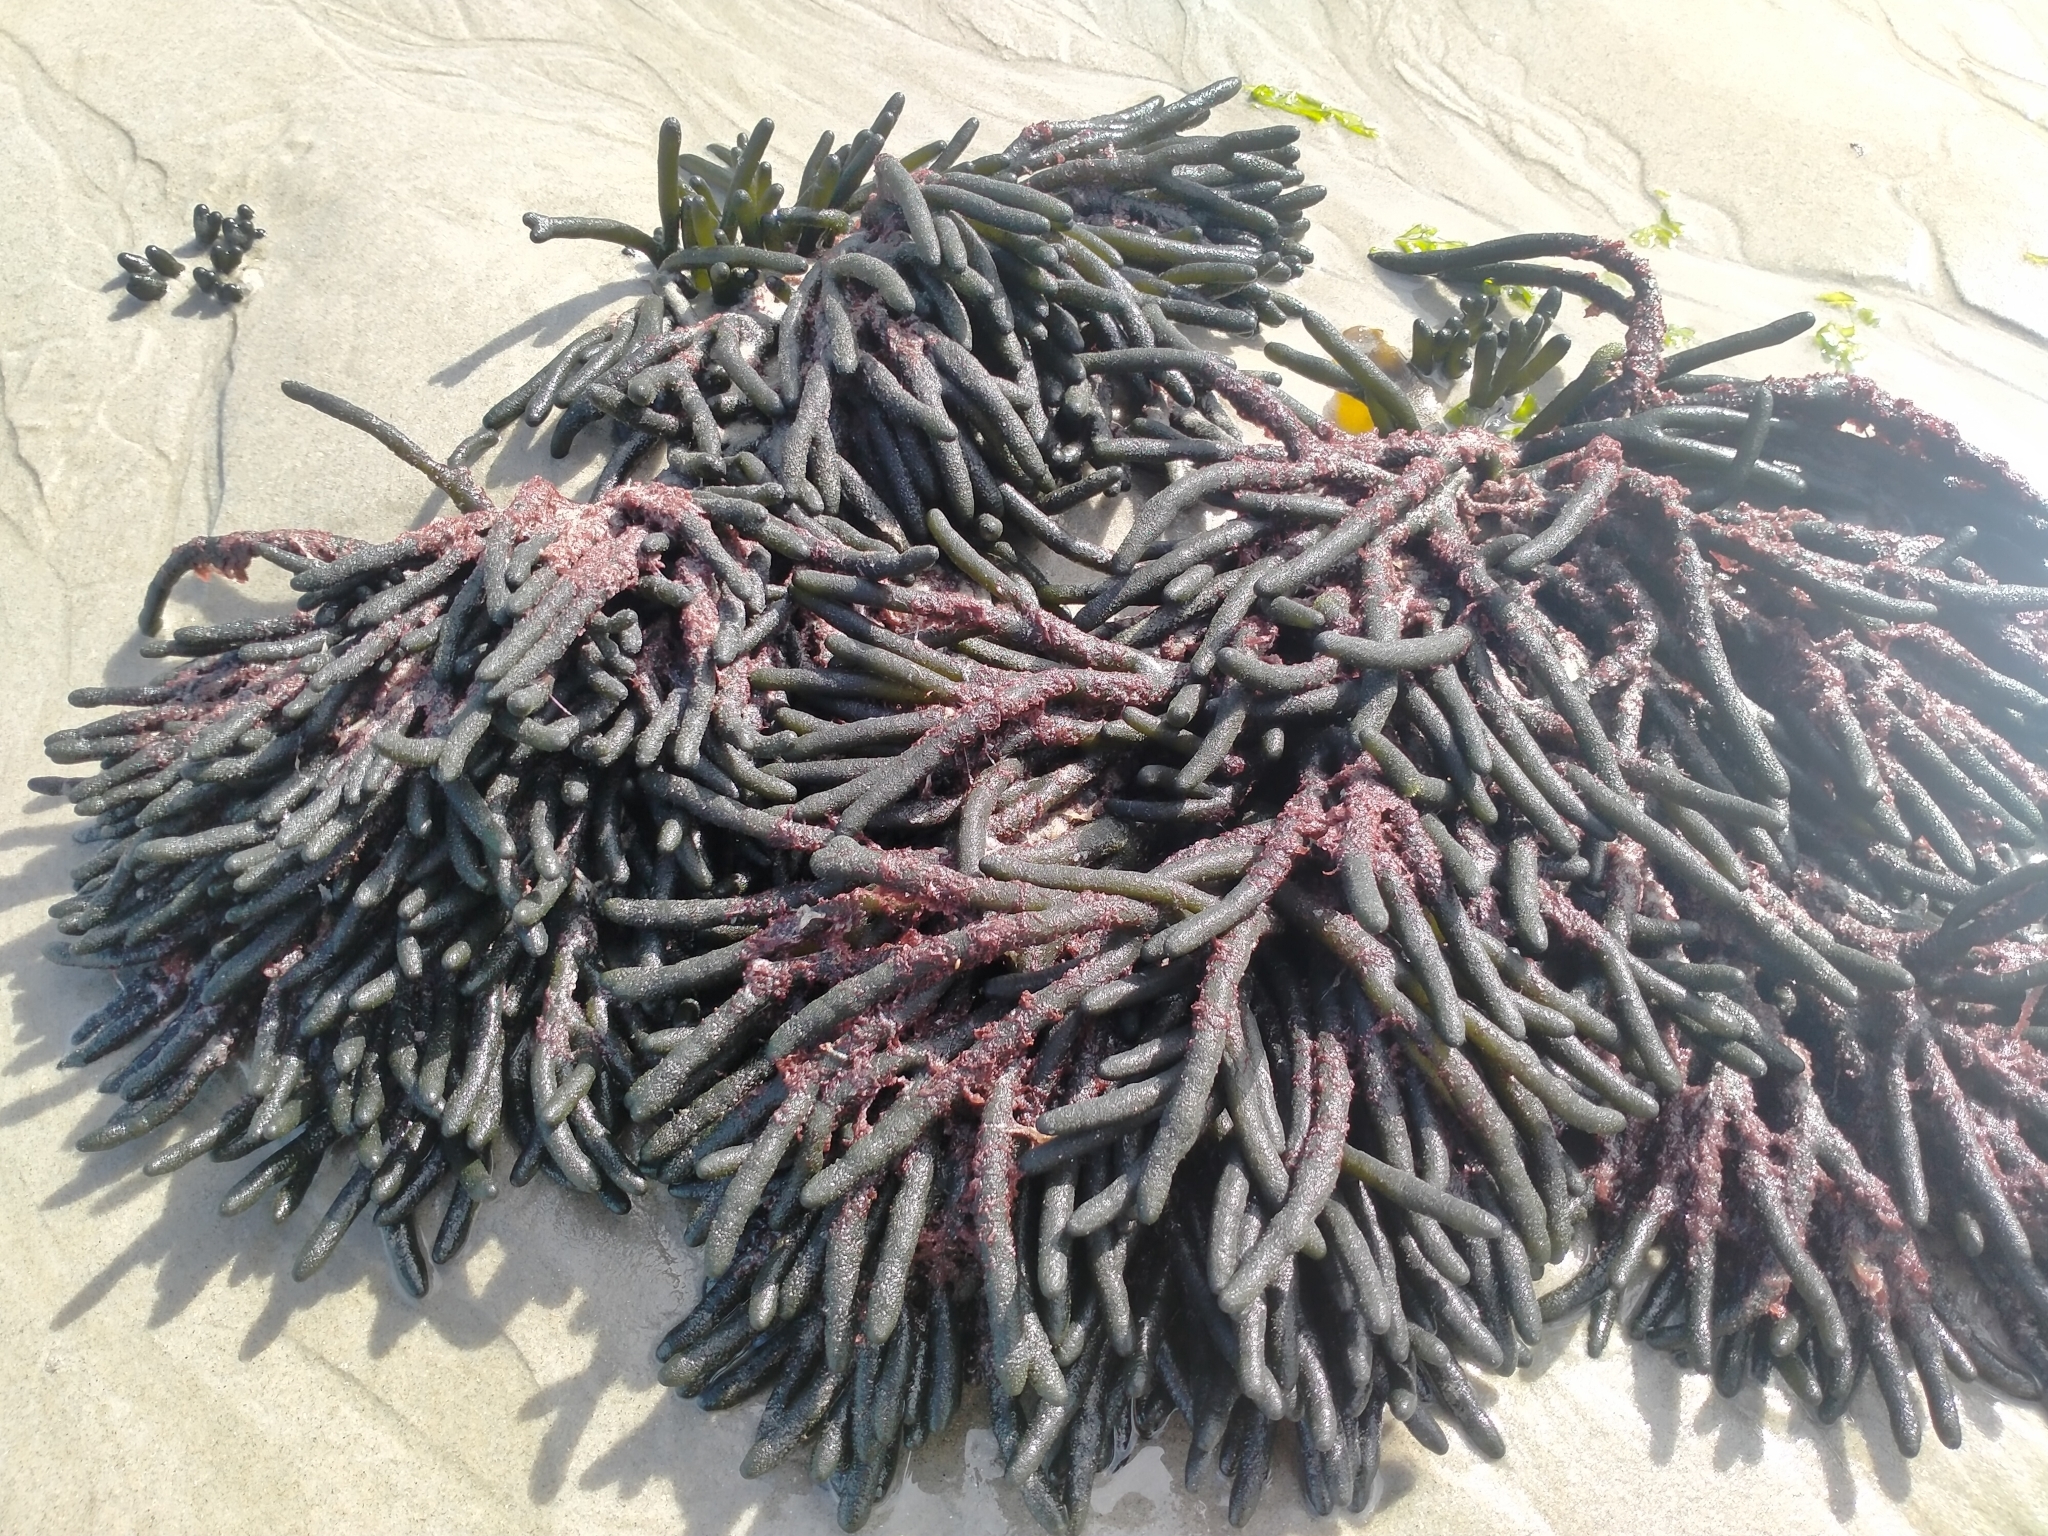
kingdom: Plantae
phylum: Chlorophyta
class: Ulvophyceae
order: Bryopsidales
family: Codiaceae
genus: Codium
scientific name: Codium fragile
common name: Dead man's fingers
